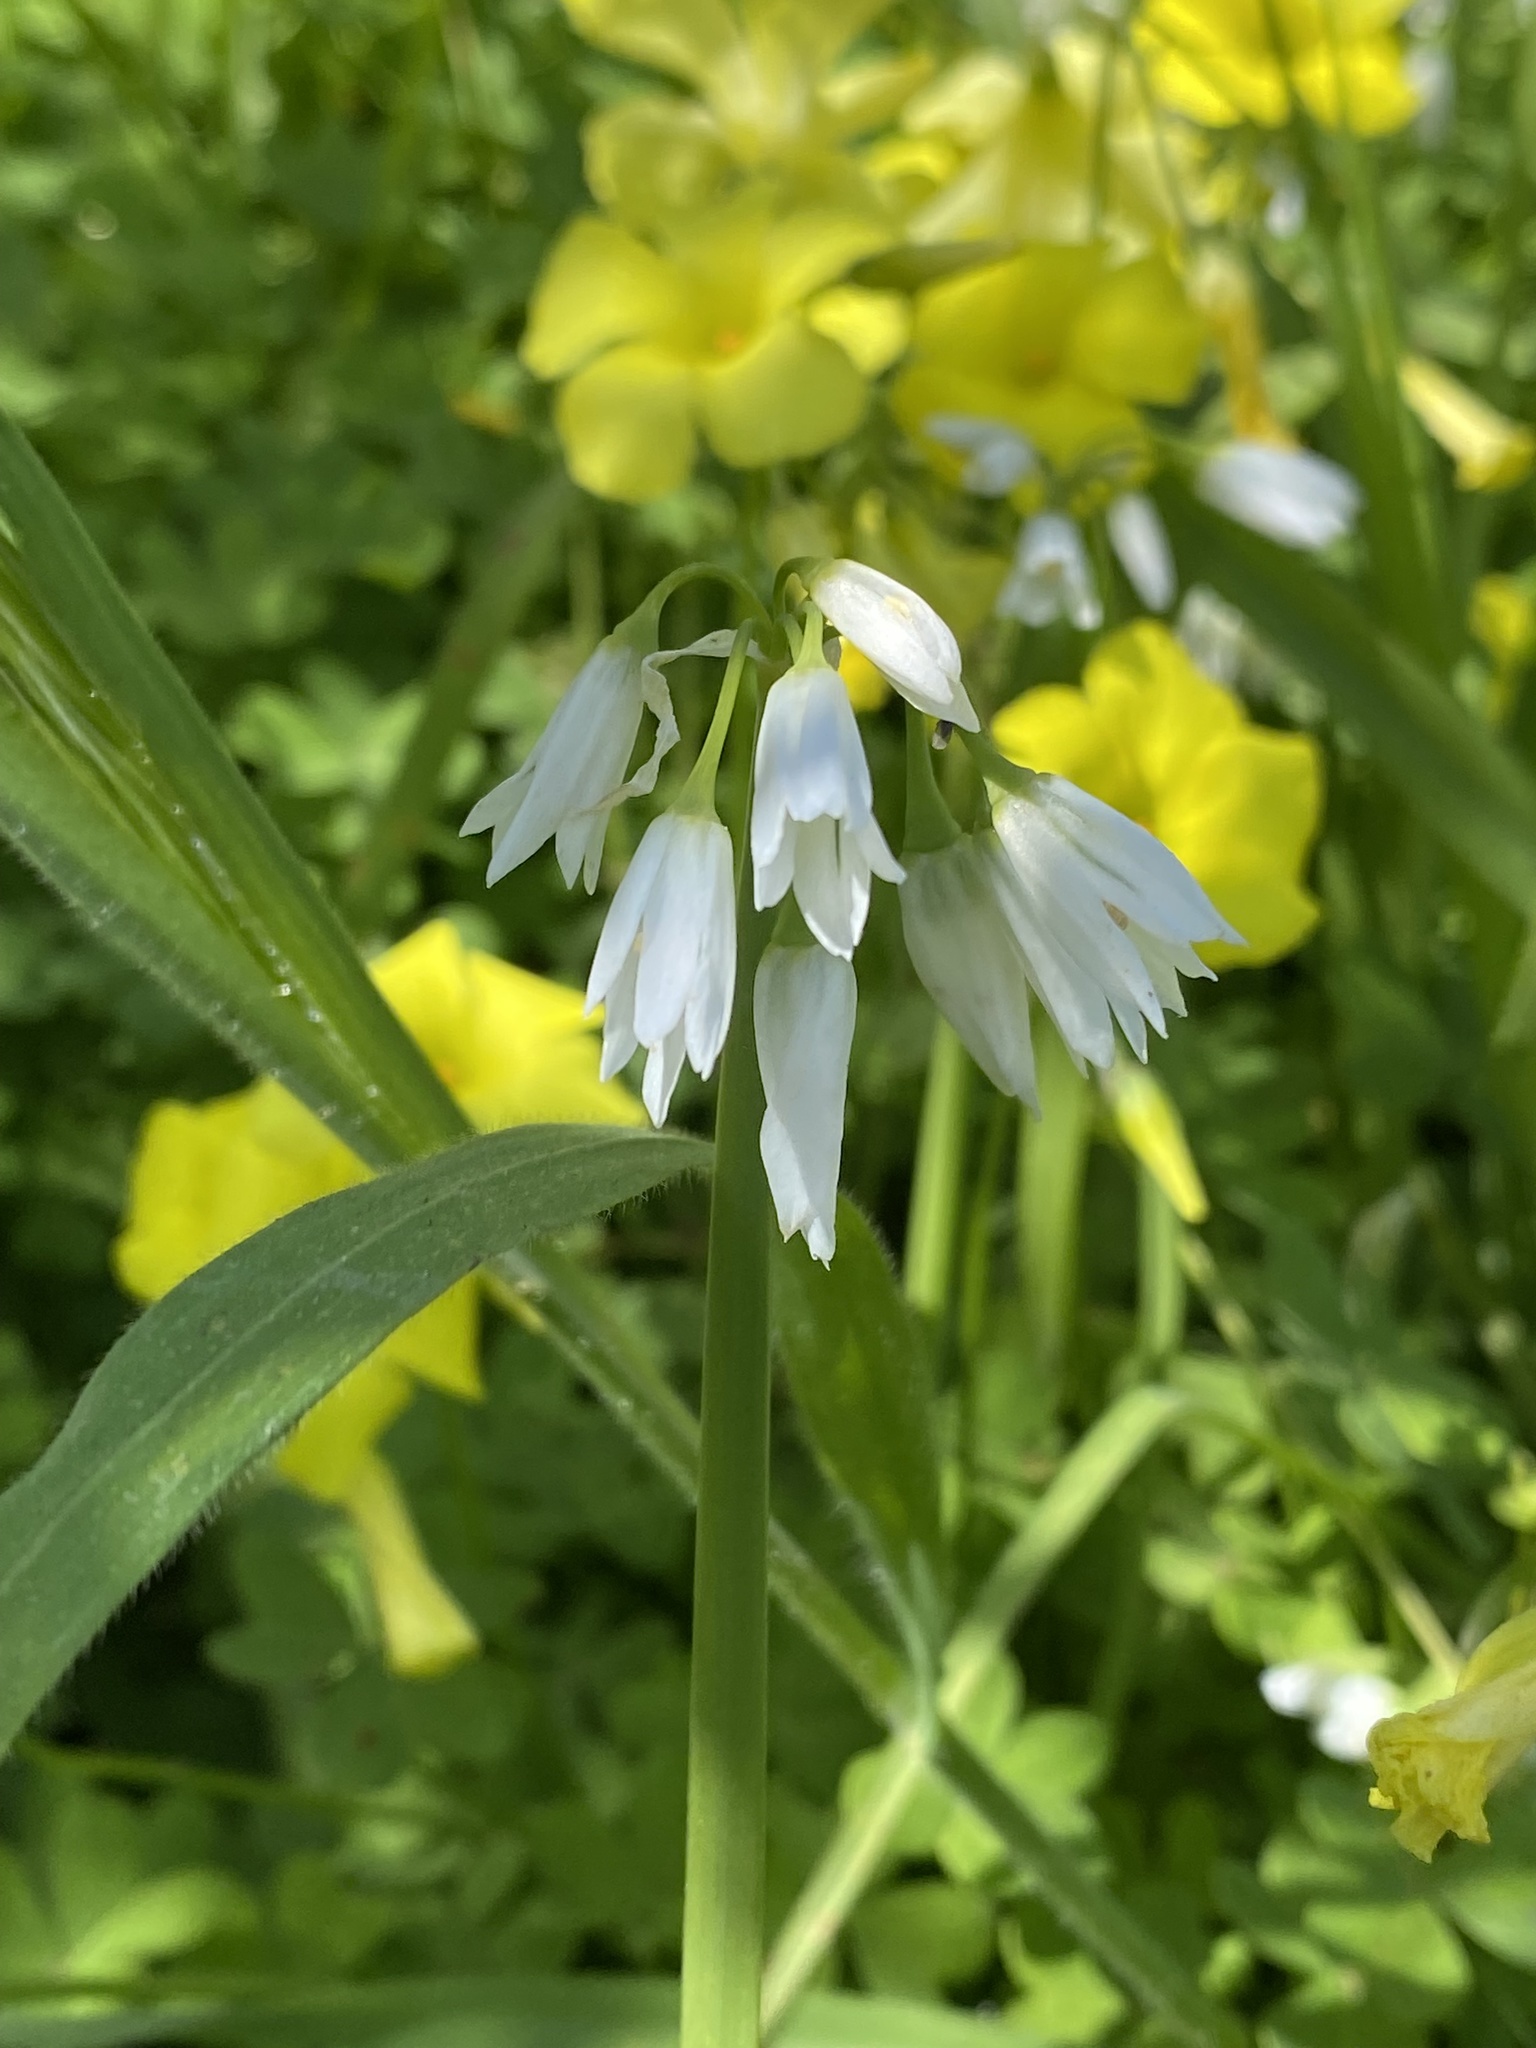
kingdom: Plantae
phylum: Tracheophyta
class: Liliopsida
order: Asparagales
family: Amaryllidaceae
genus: Allium
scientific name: Allium triquetrum
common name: Three-cornered garlic
